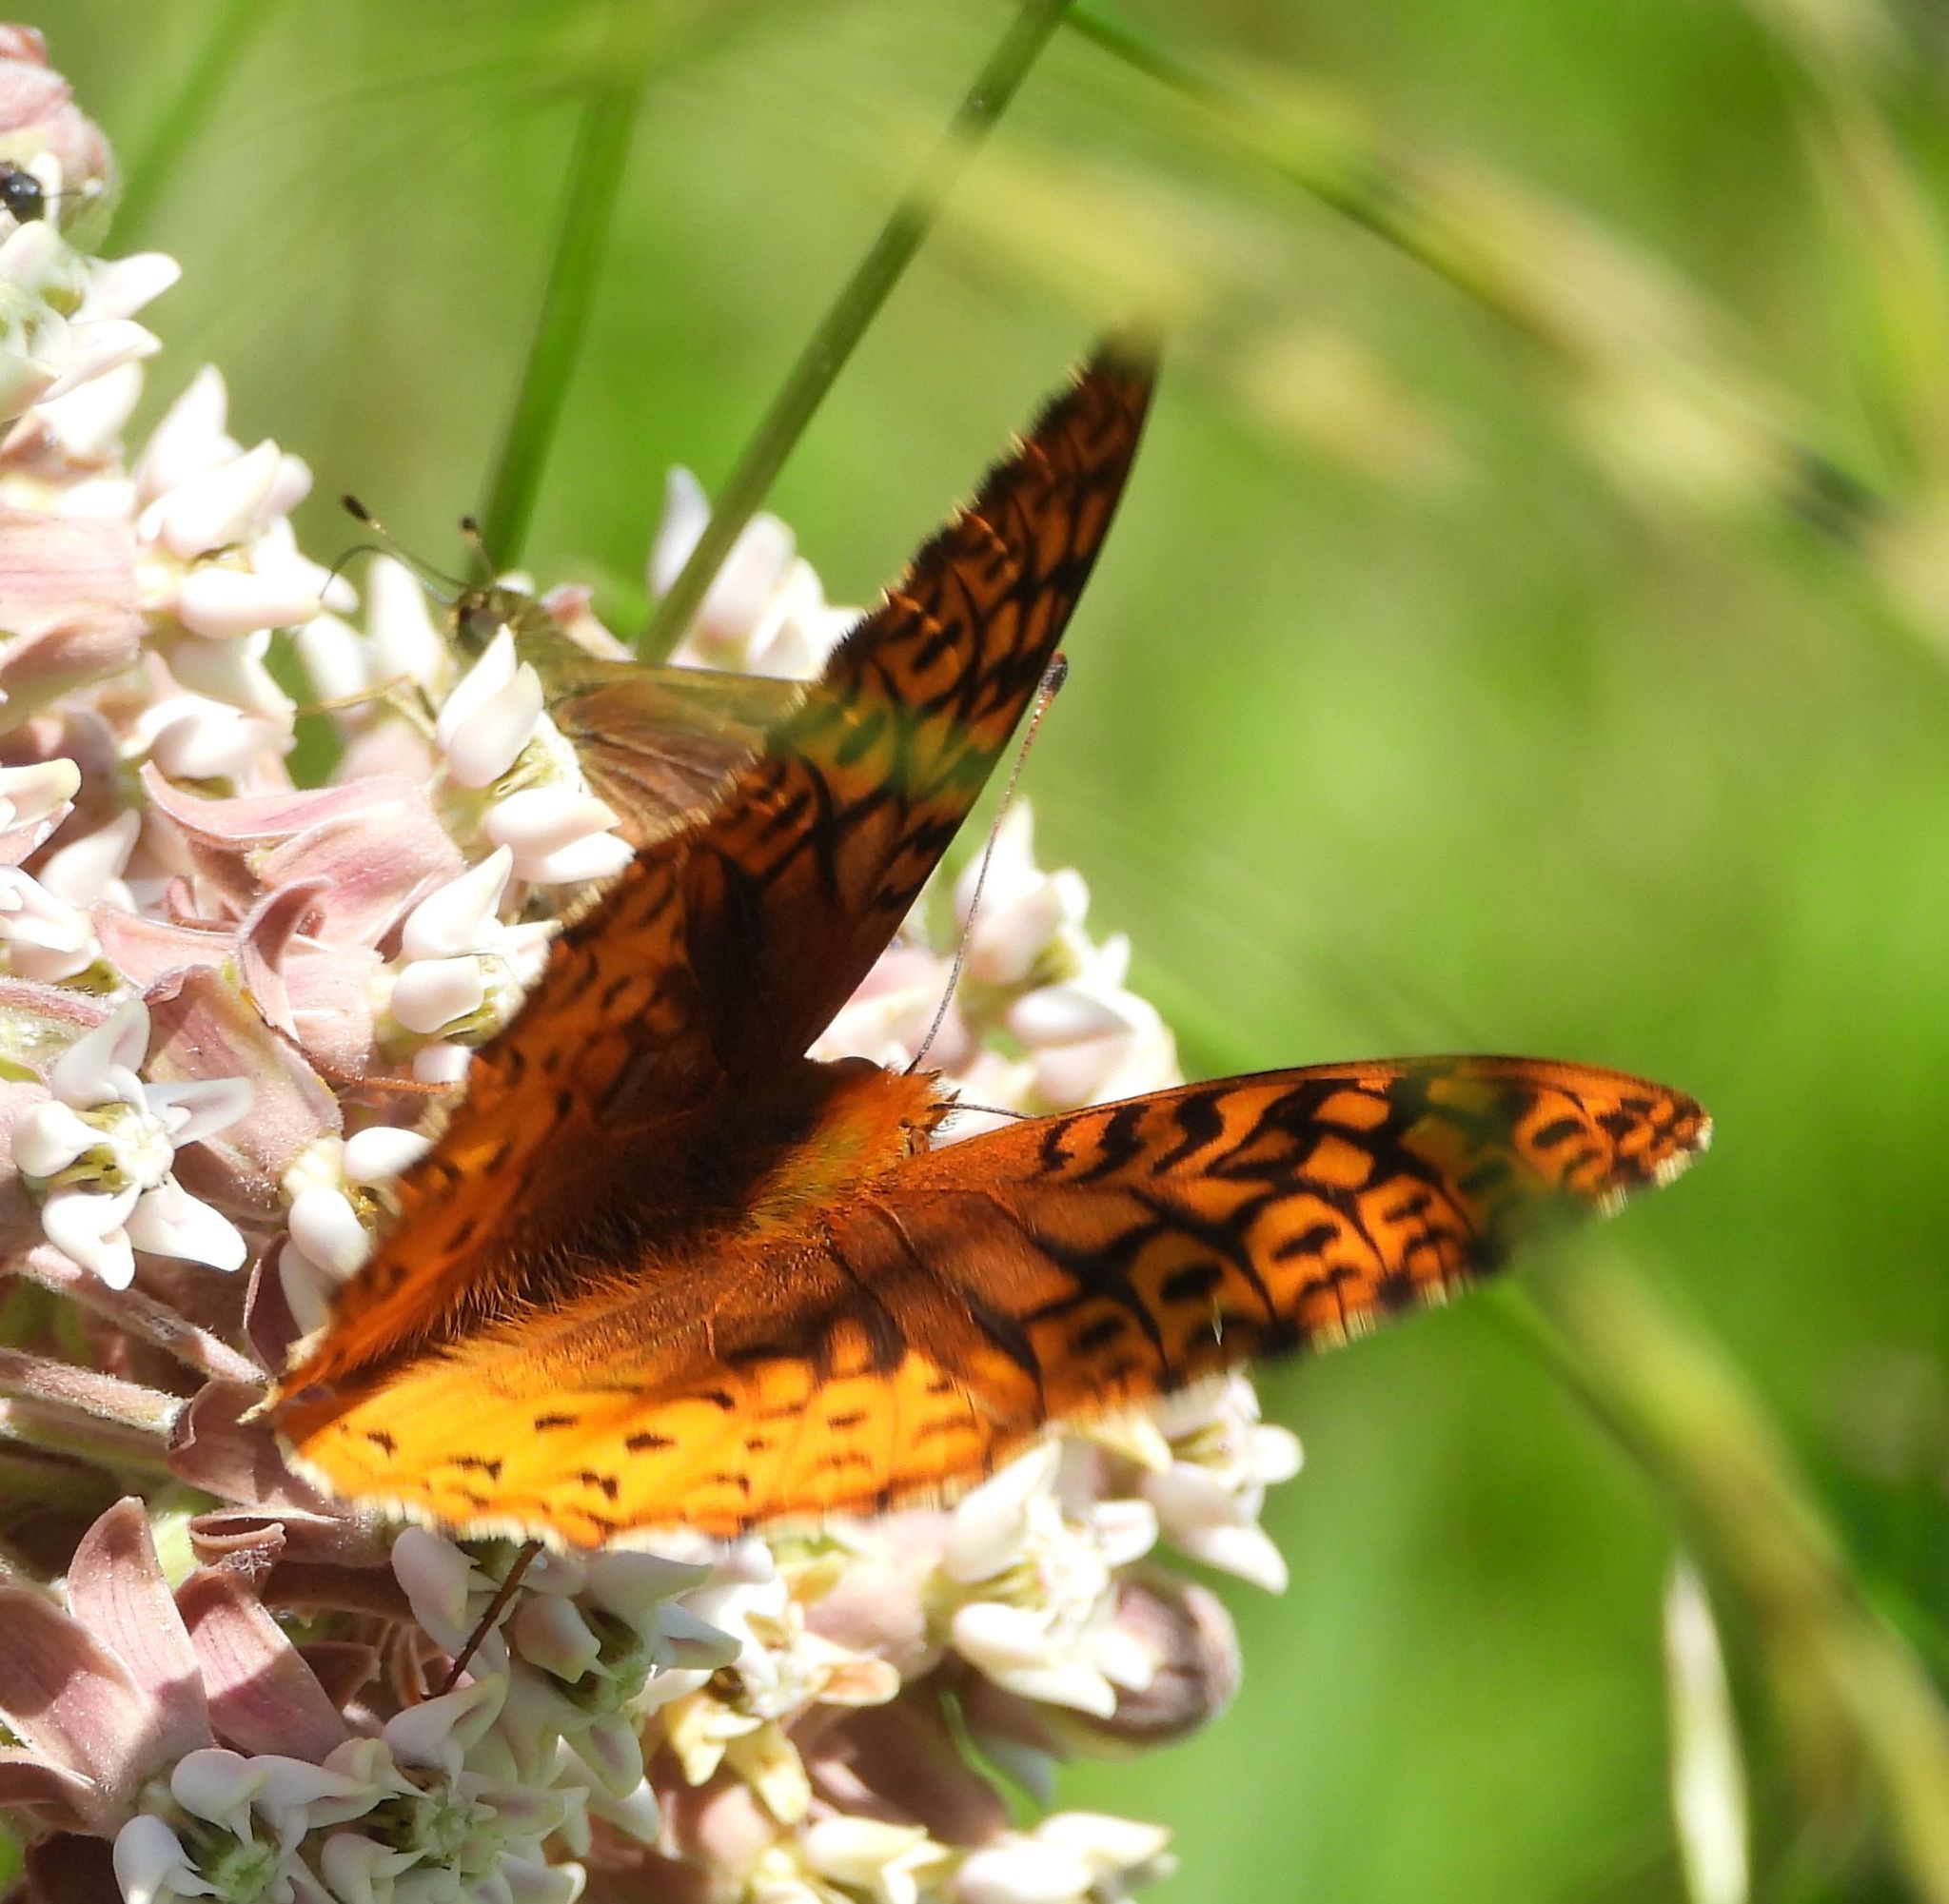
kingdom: Animalia
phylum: Arthropoda
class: Insecta
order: Lepidoptera
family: Nymphalidae
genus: Speyeria
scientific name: Speyeria cybele
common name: Great spangled fritillary
